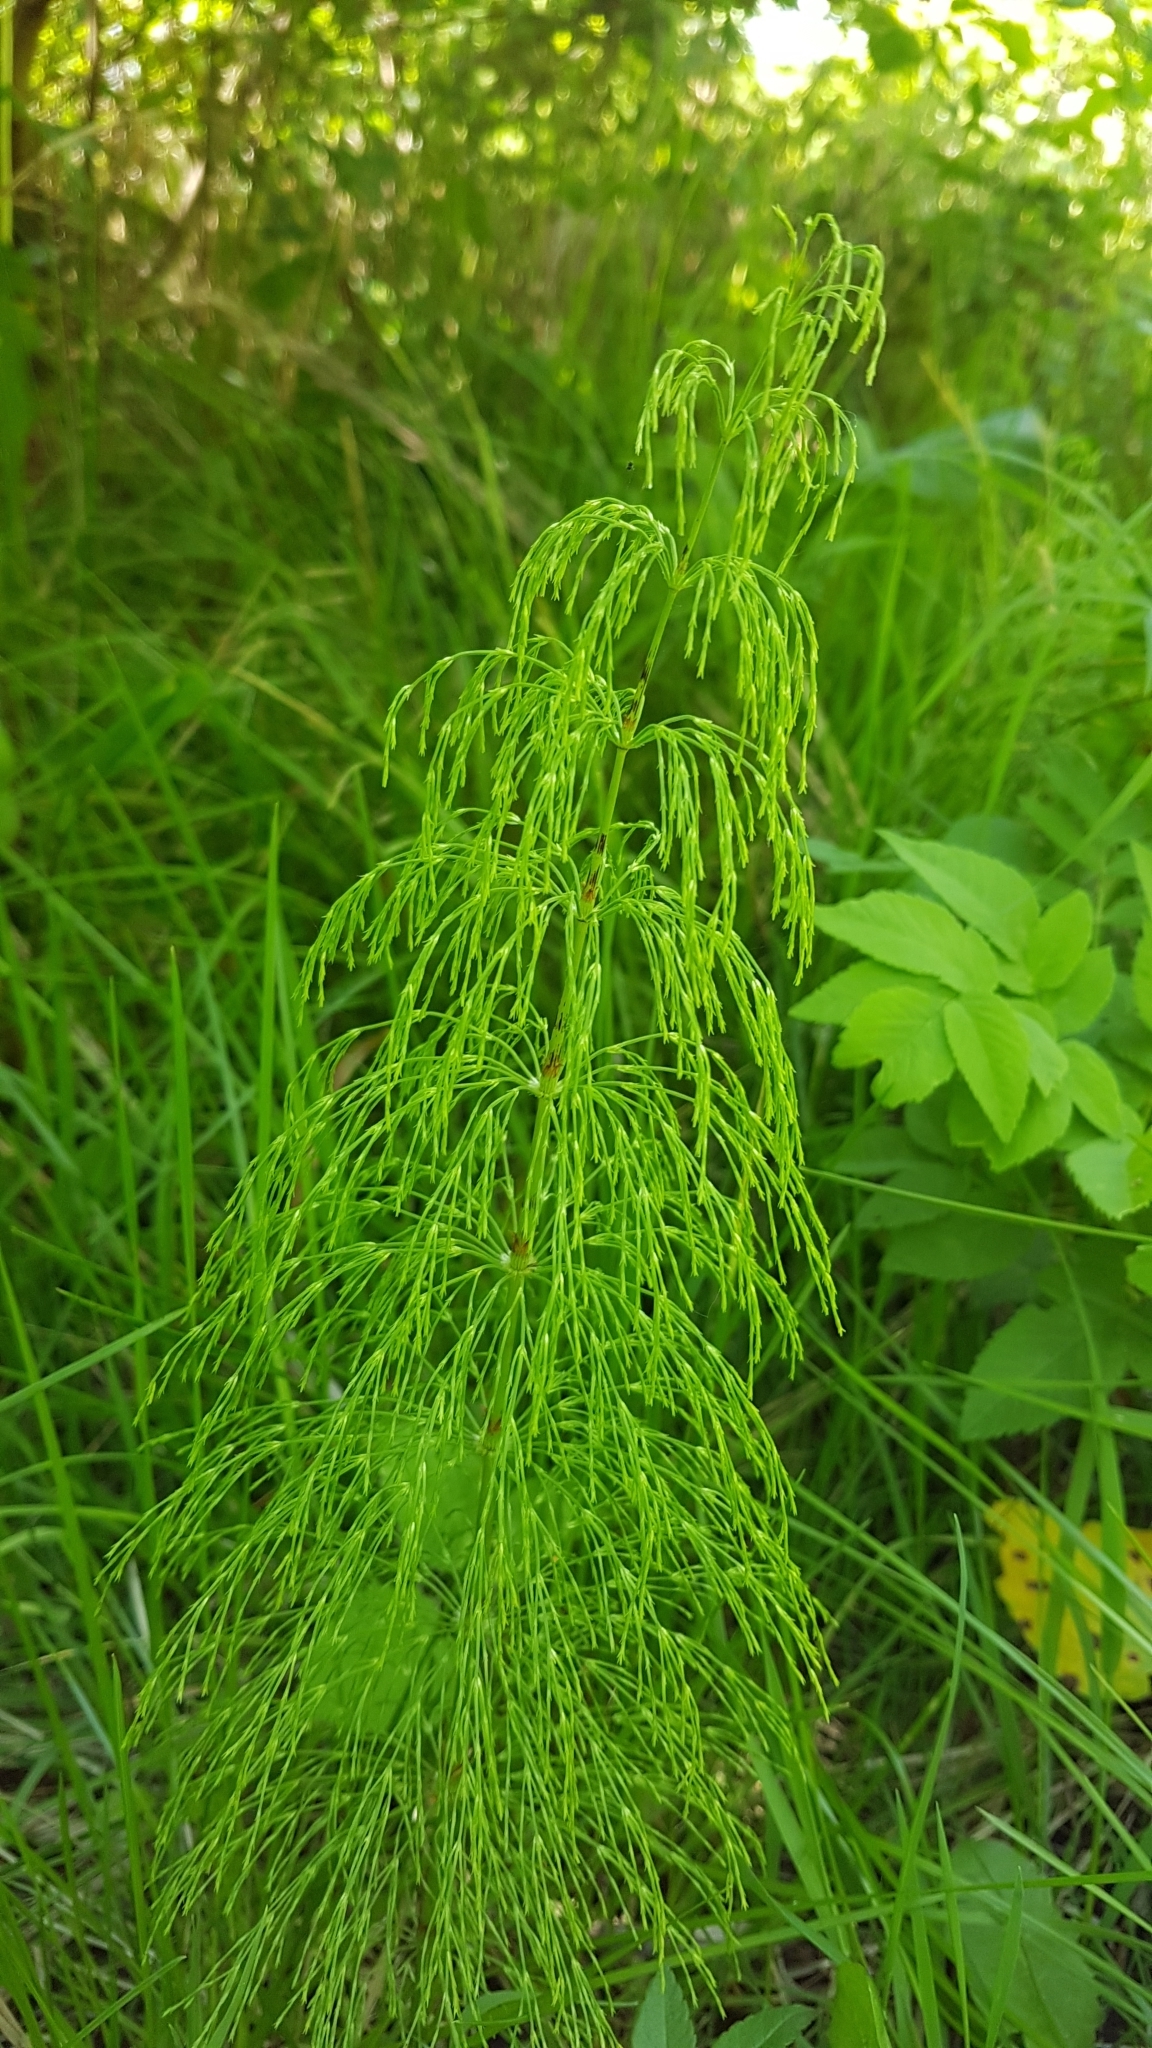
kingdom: Plantae
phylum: Tracheophyta
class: Polypodiopsida
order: Equisetales
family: Equisetaceae
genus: Equisetum
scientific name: Equisetum sylvaticum
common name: Wood horsetail
